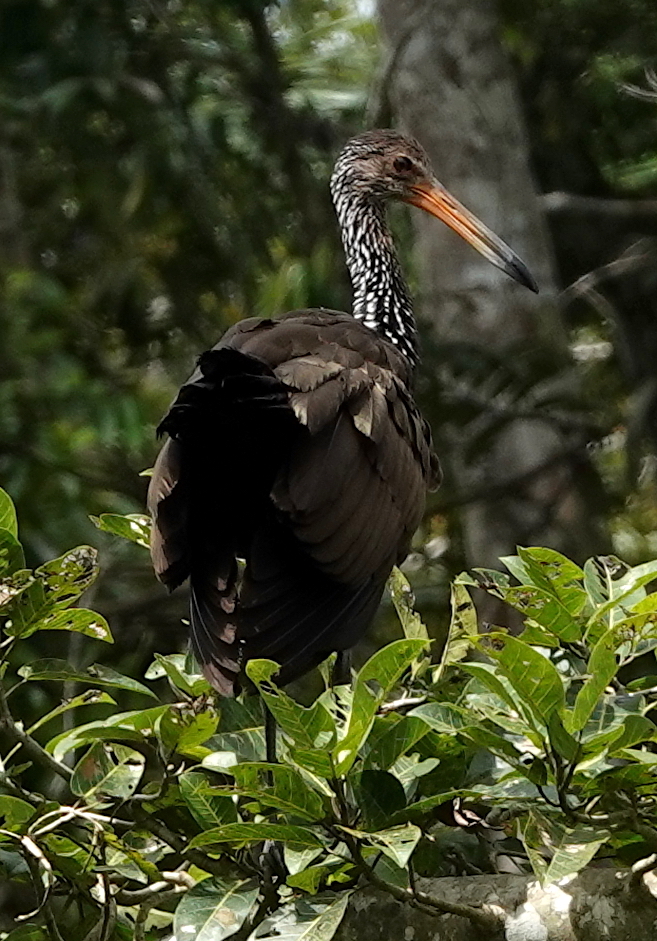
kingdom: Animalia
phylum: Chordata
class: Aves
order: Gruiformes
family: Aramidae
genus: Aramus
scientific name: Aramus guarauna
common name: Limpkin
